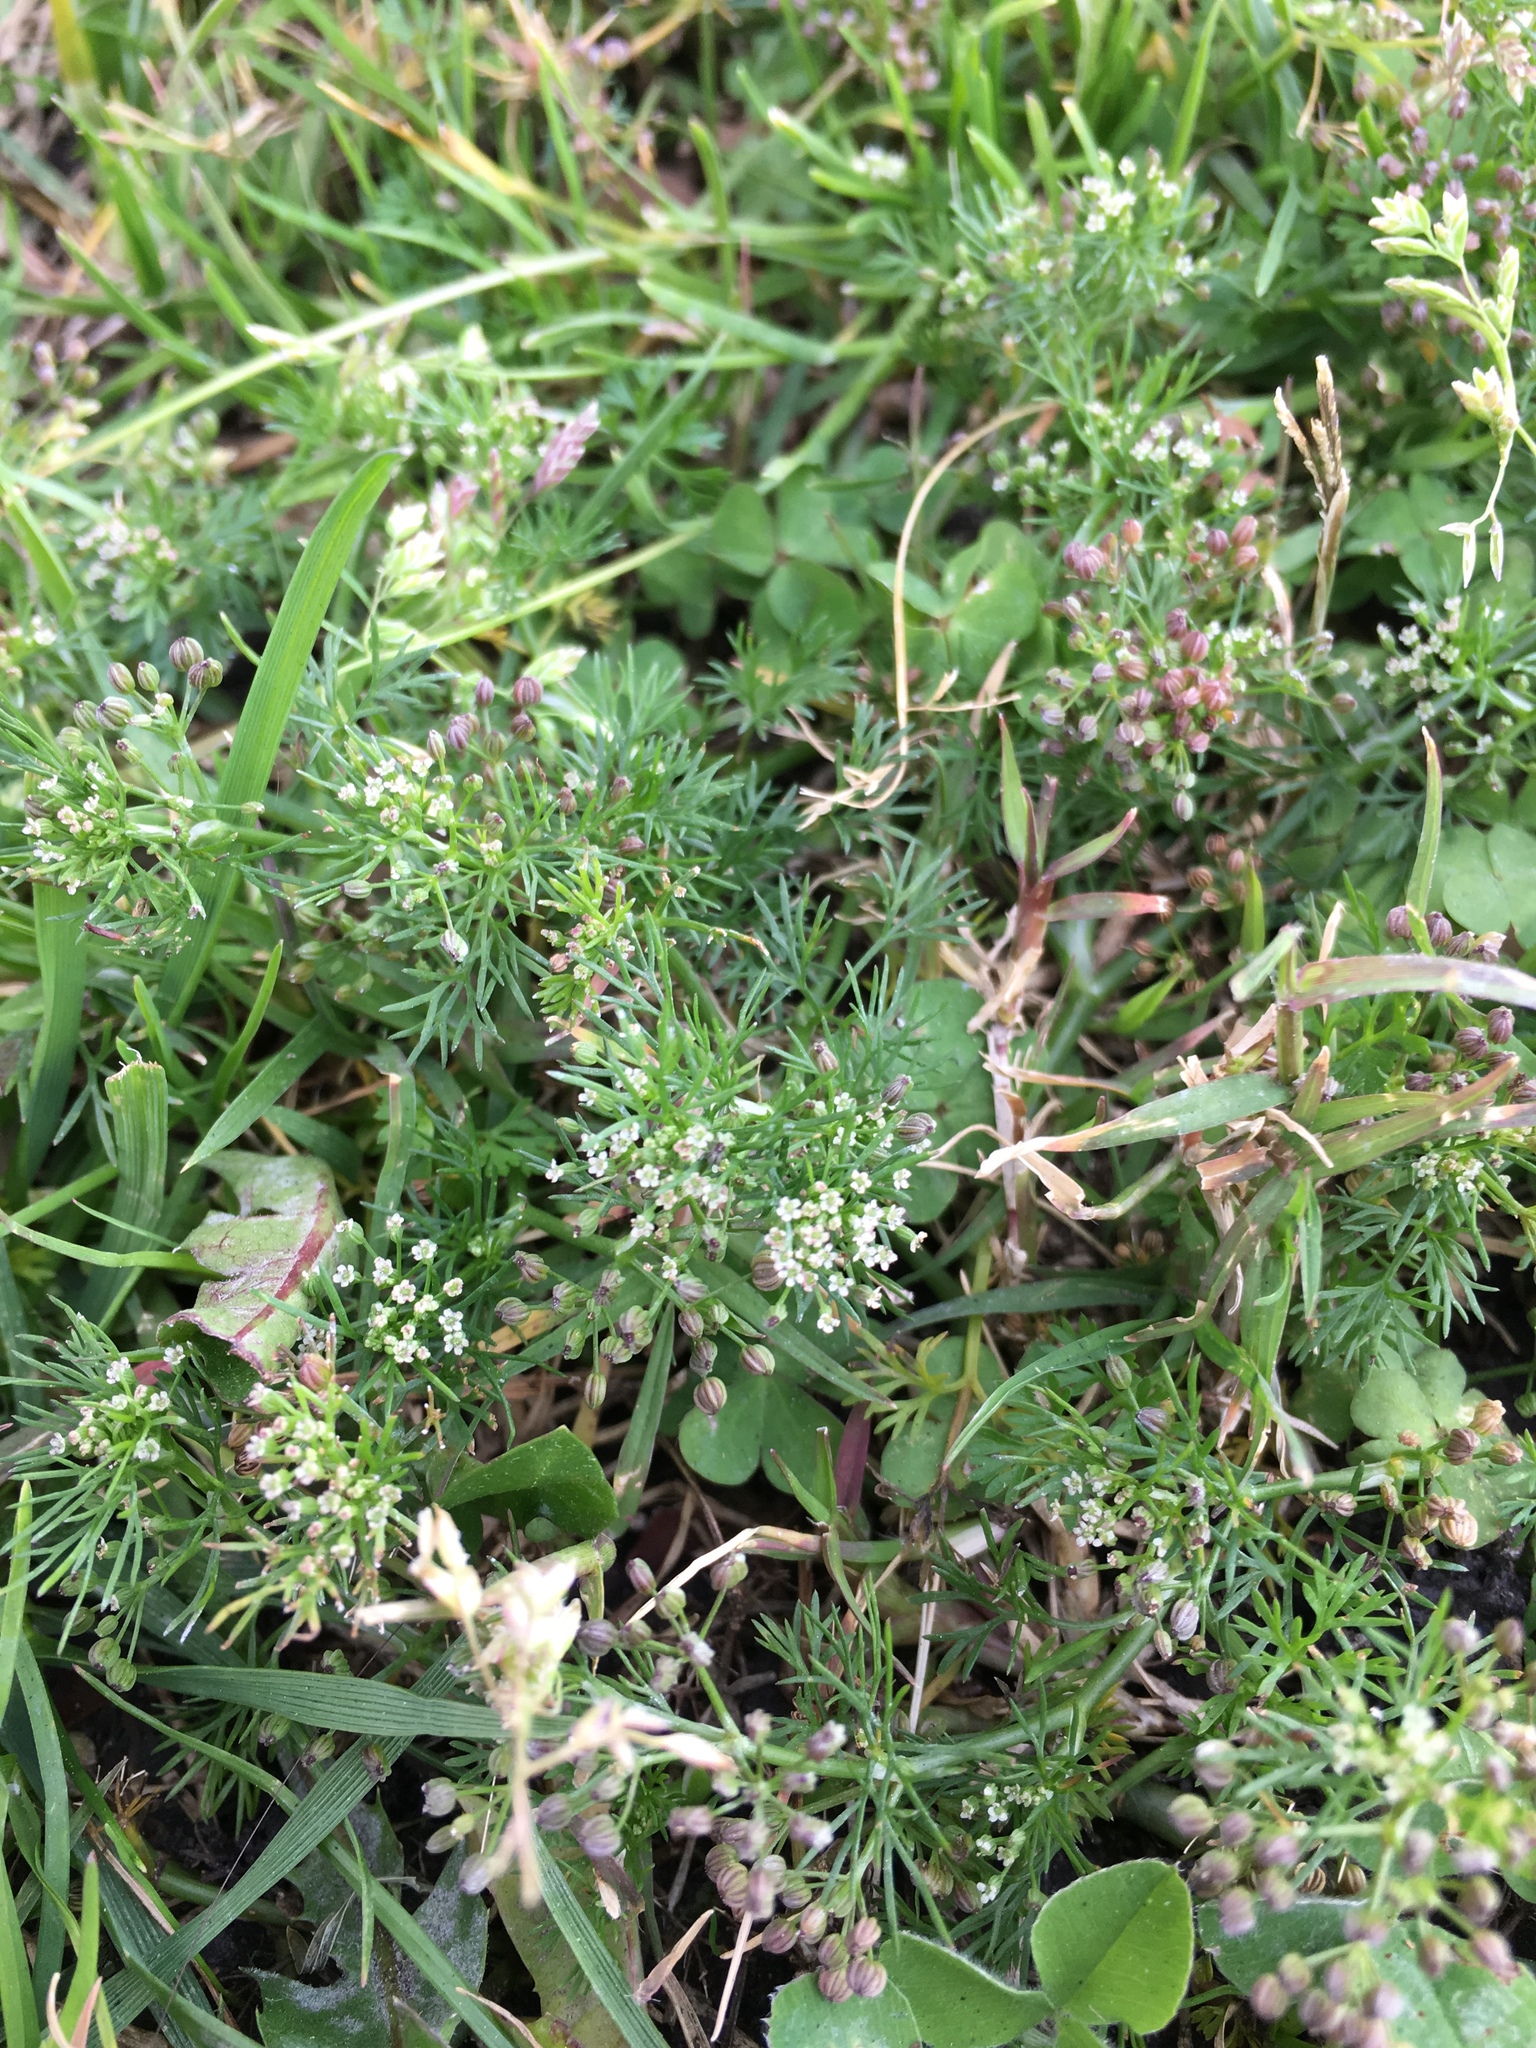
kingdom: Plantae
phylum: Tracheophyta
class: Magnoliopsida
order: Apiales
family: Apiaceae
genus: Cyclospermum
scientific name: Cyclospermum leptophyllum
